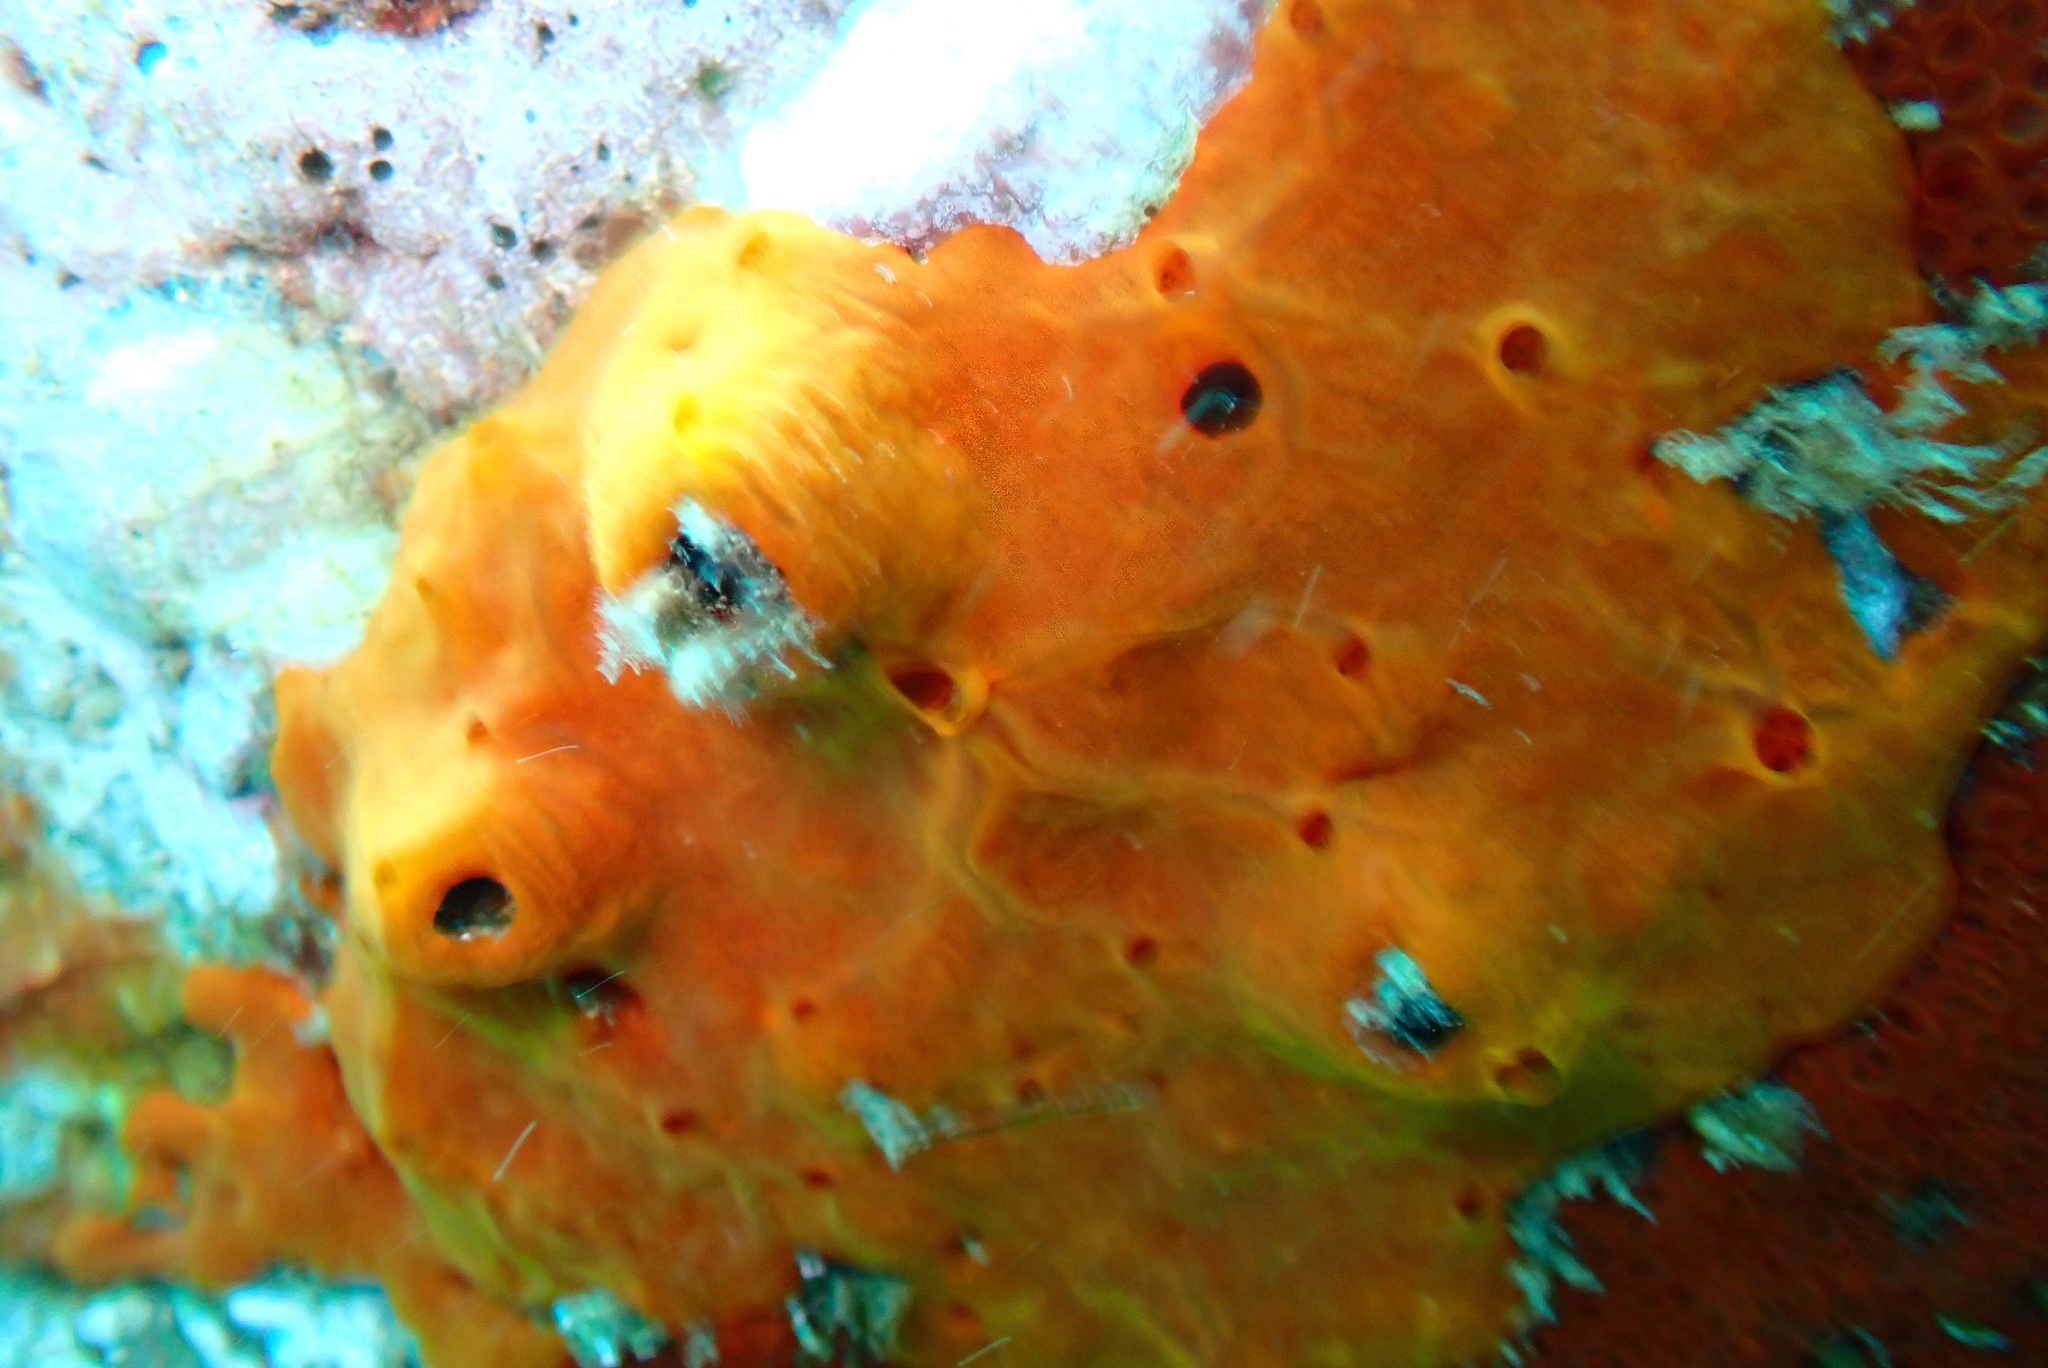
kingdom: Animalia
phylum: Porifera
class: Demospongiae
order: Poecilosclerida
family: Crambeidae
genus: Crambe
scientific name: Crambe crambe
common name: Orange-red encrusting sponge
